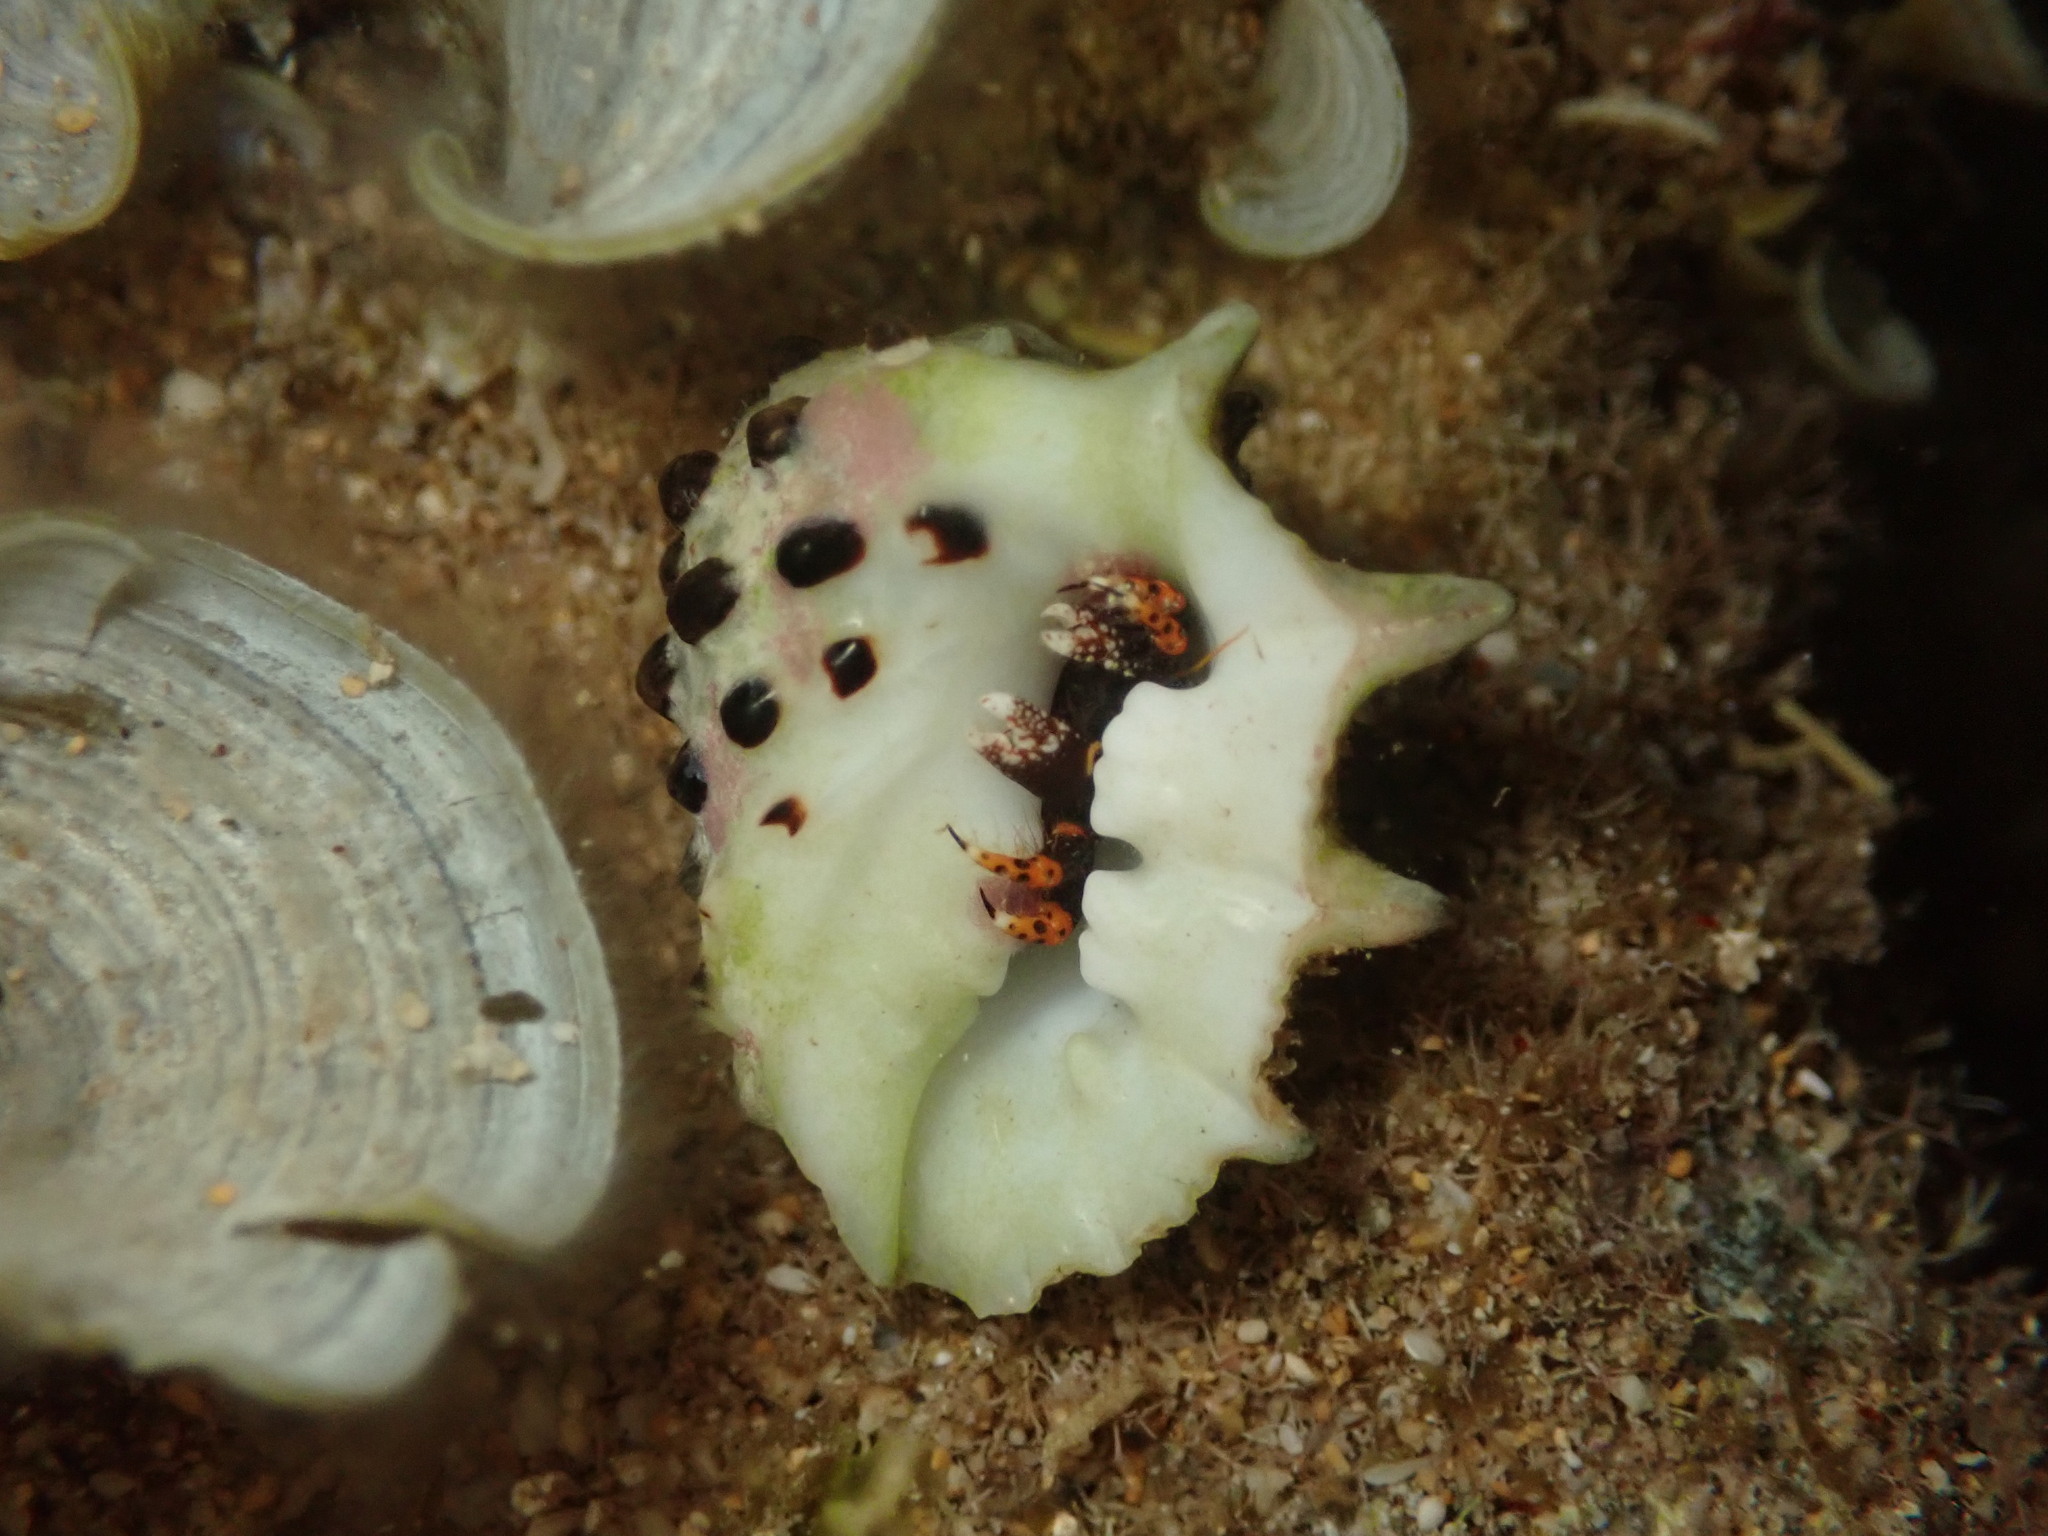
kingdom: Animalia
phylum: Mollusca
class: Gastropoda
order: Neogastropoda
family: Muricidae
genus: Drupa
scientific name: Drupa ricinus
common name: White-lipped castor bean
